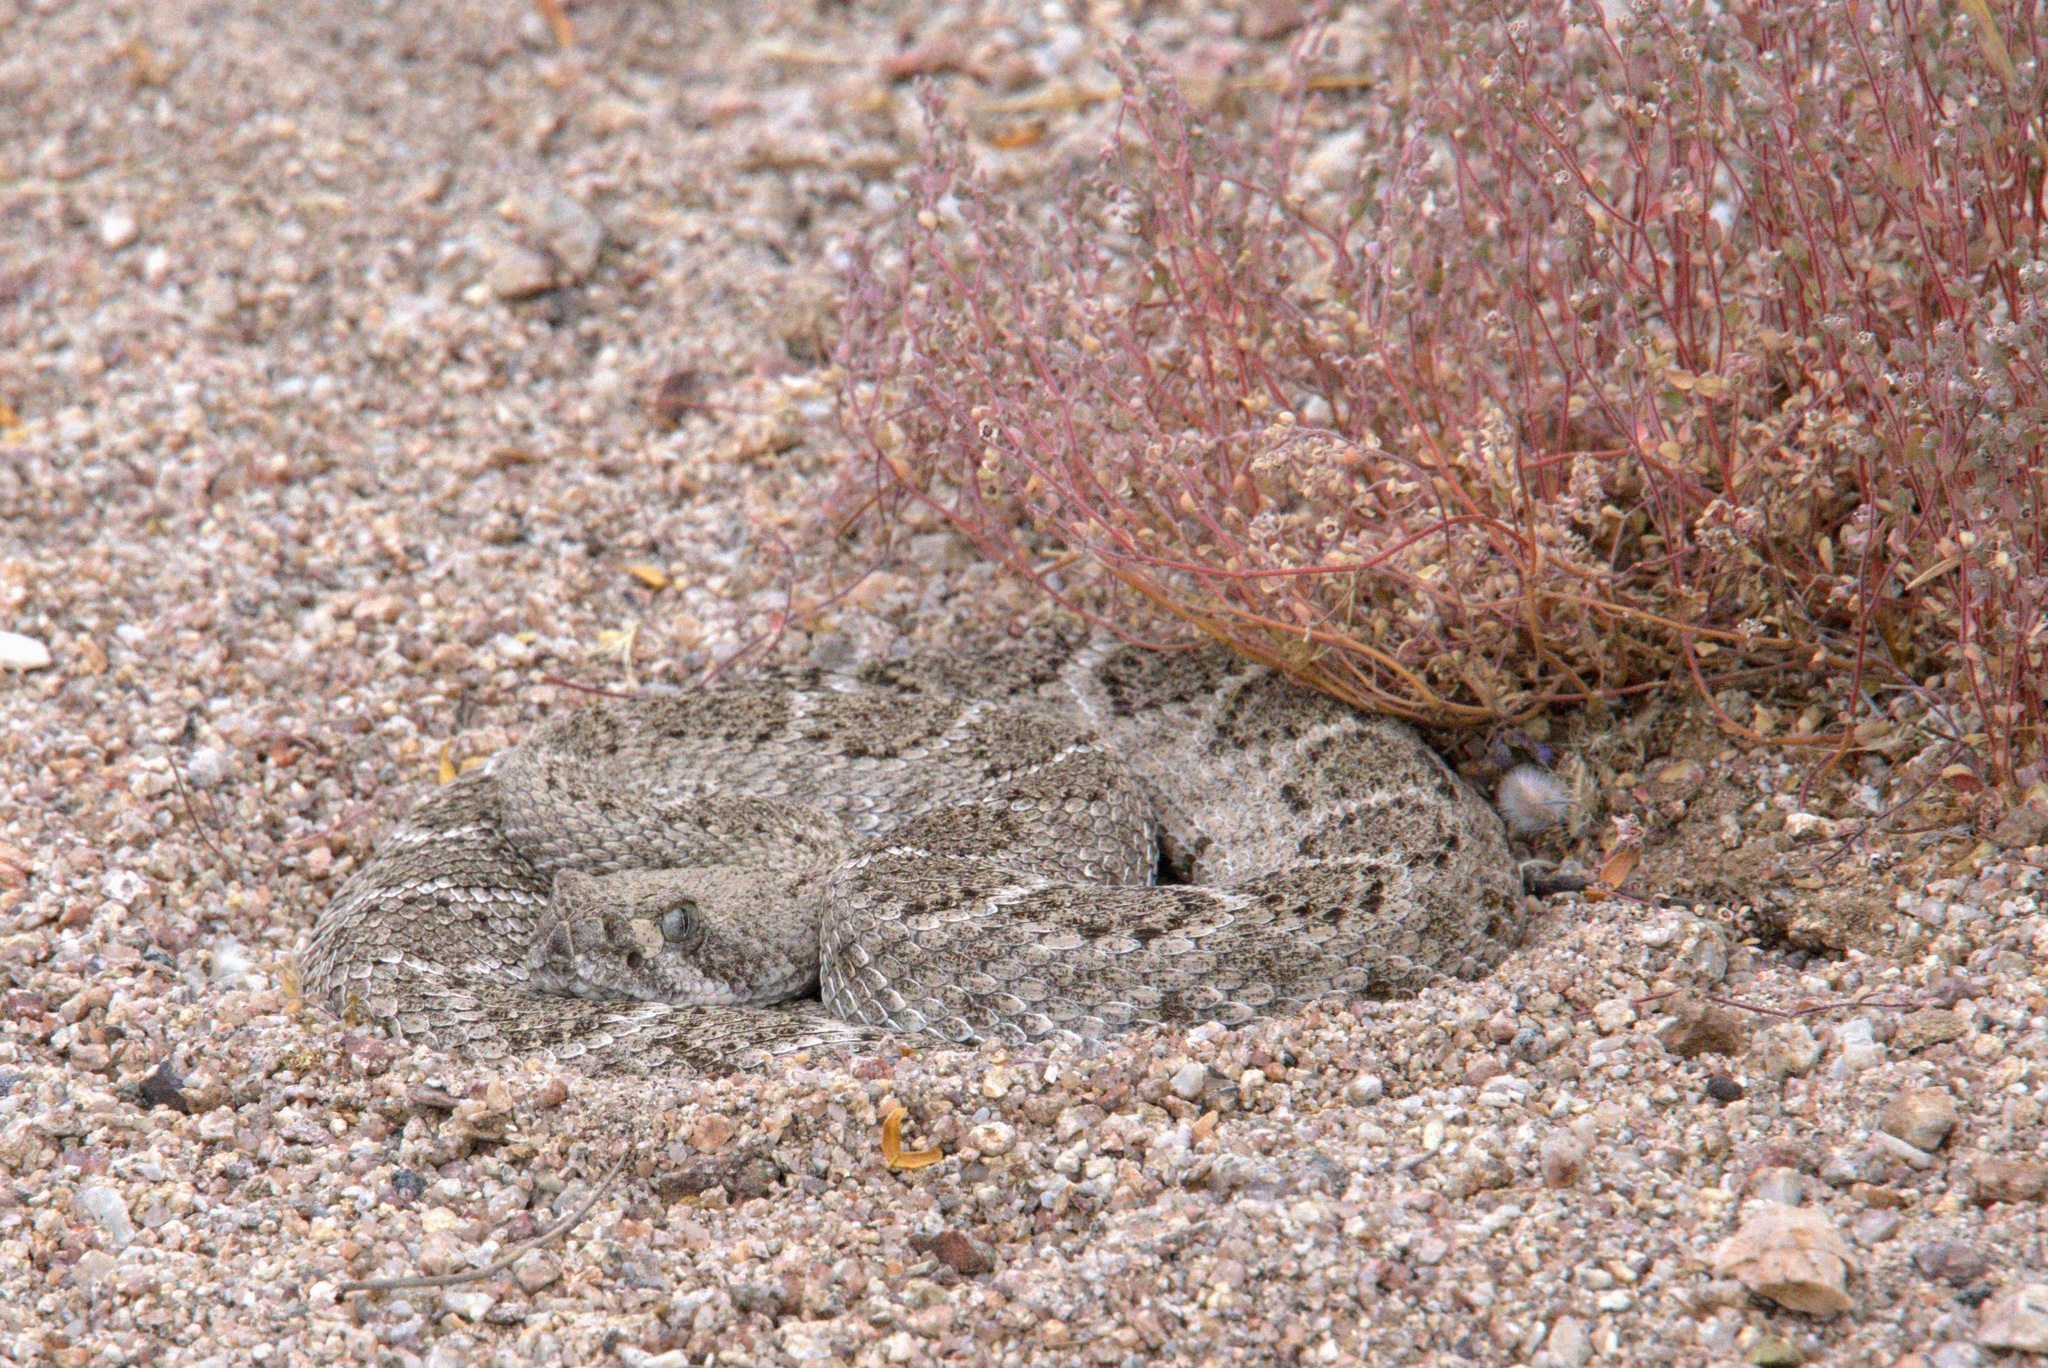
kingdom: Animalia
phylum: Chordata
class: Squamata
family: Viperidae
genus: Crotalus
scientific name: Crotalus atrox
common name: Western diamond-backed rattlesnake
